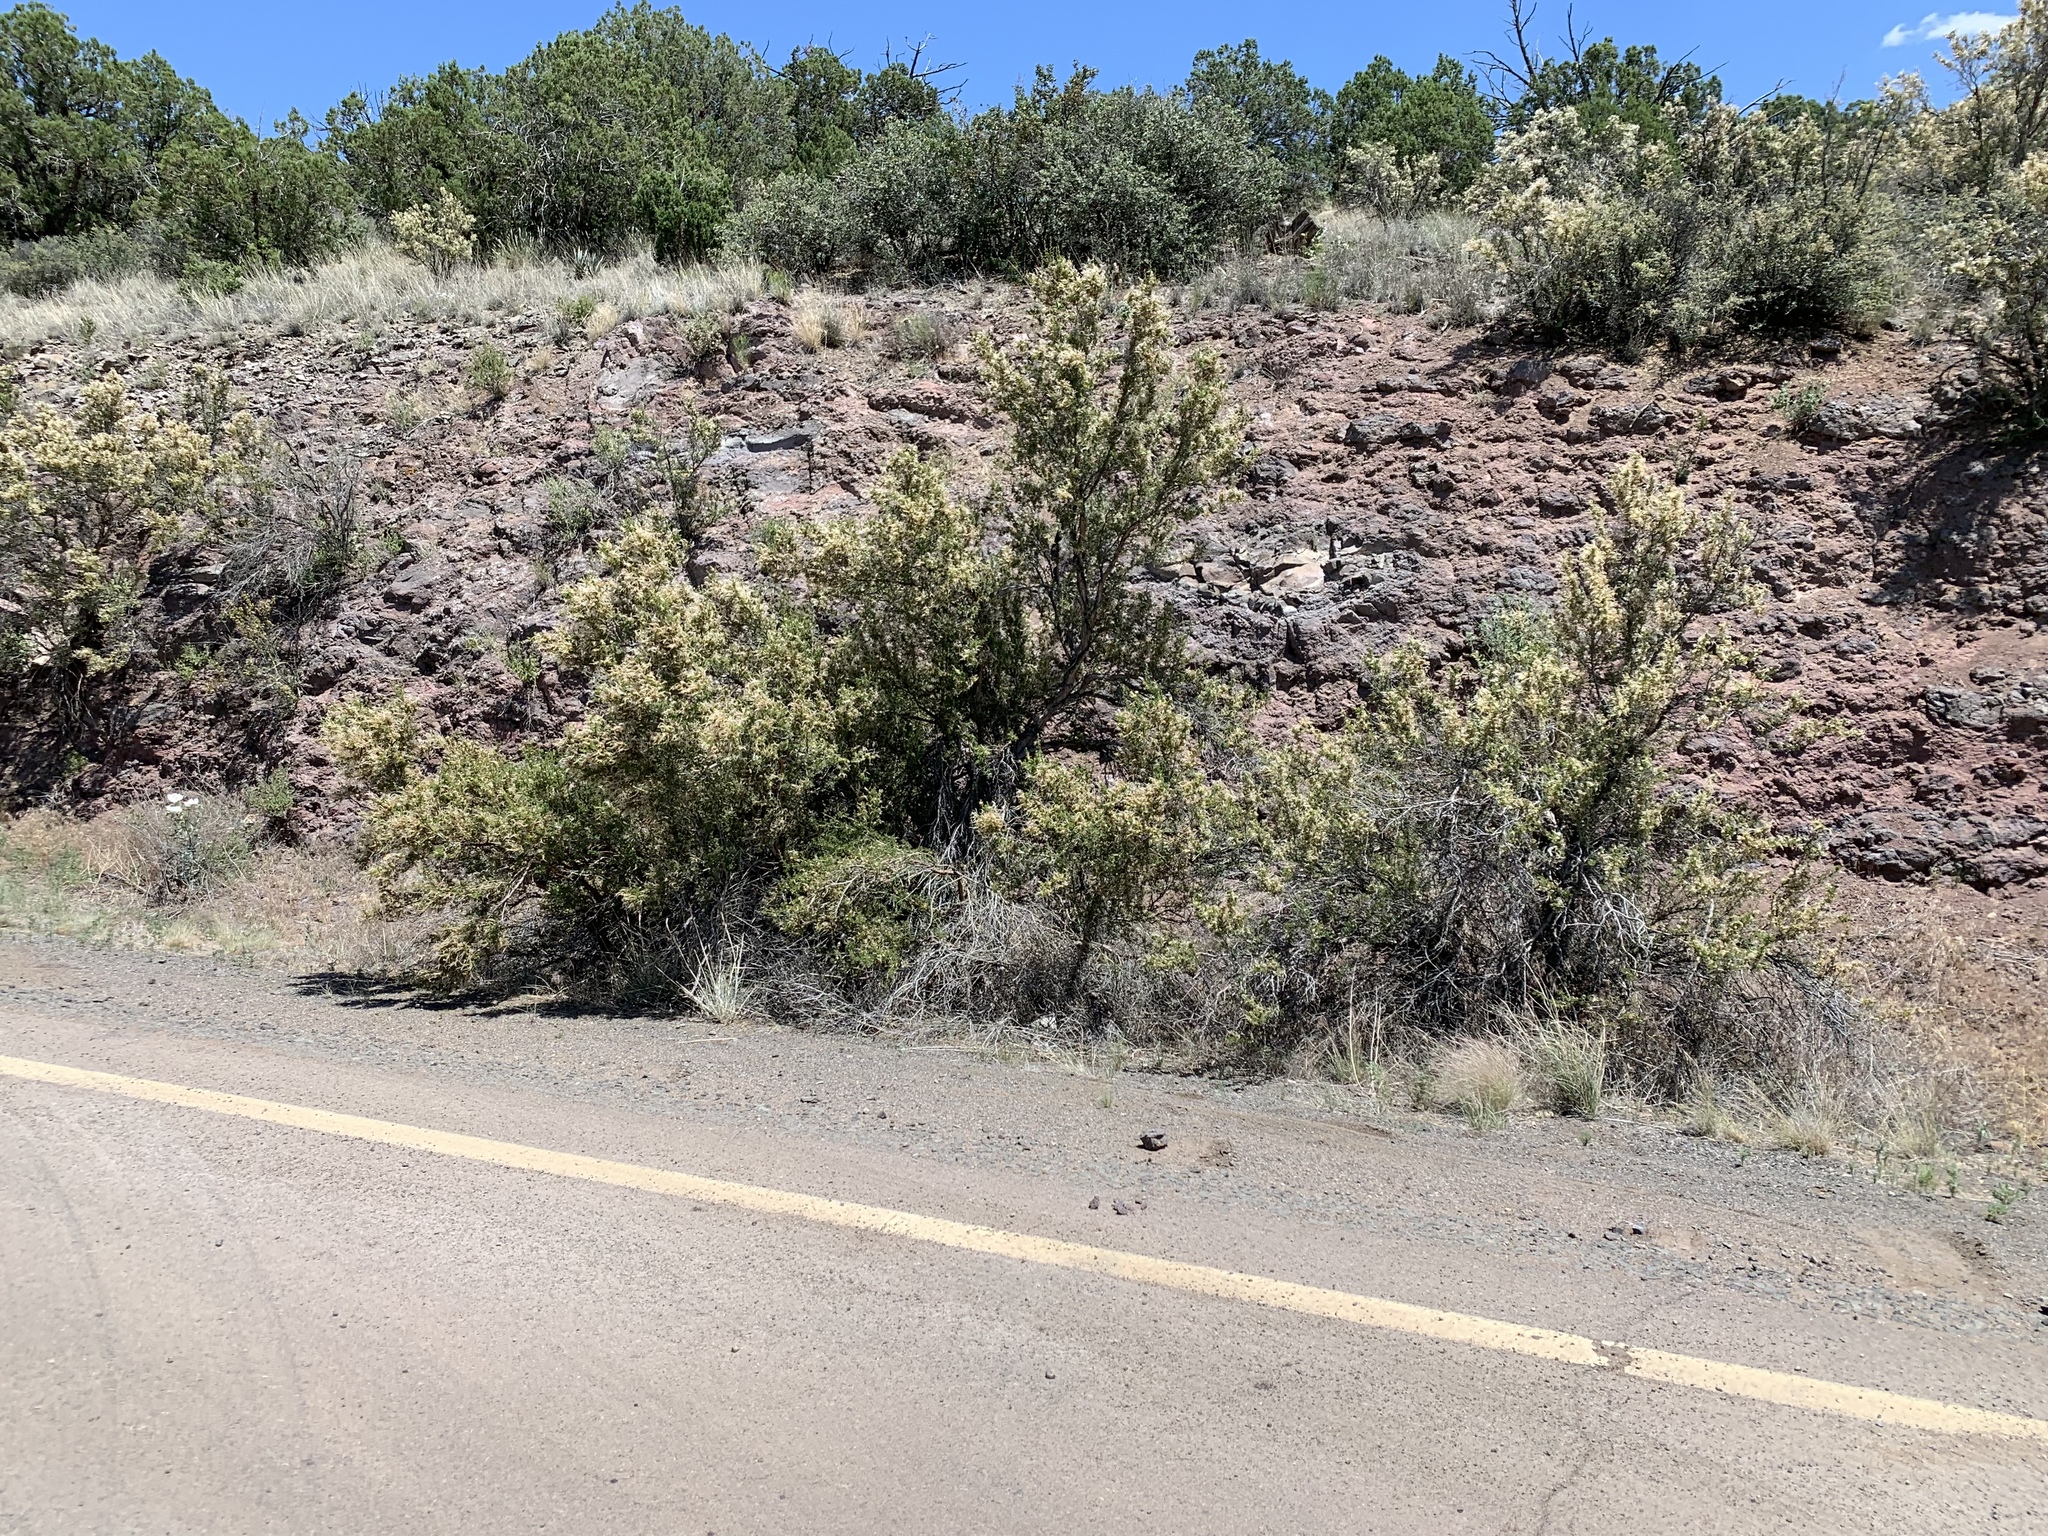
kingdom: Plantae
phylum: Tracheophyta
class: Magnoliopsida
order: Rosales
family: Rosaceae
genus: Purshia
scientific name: Purshia stansburiana
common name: Stansbury's cliffrose
